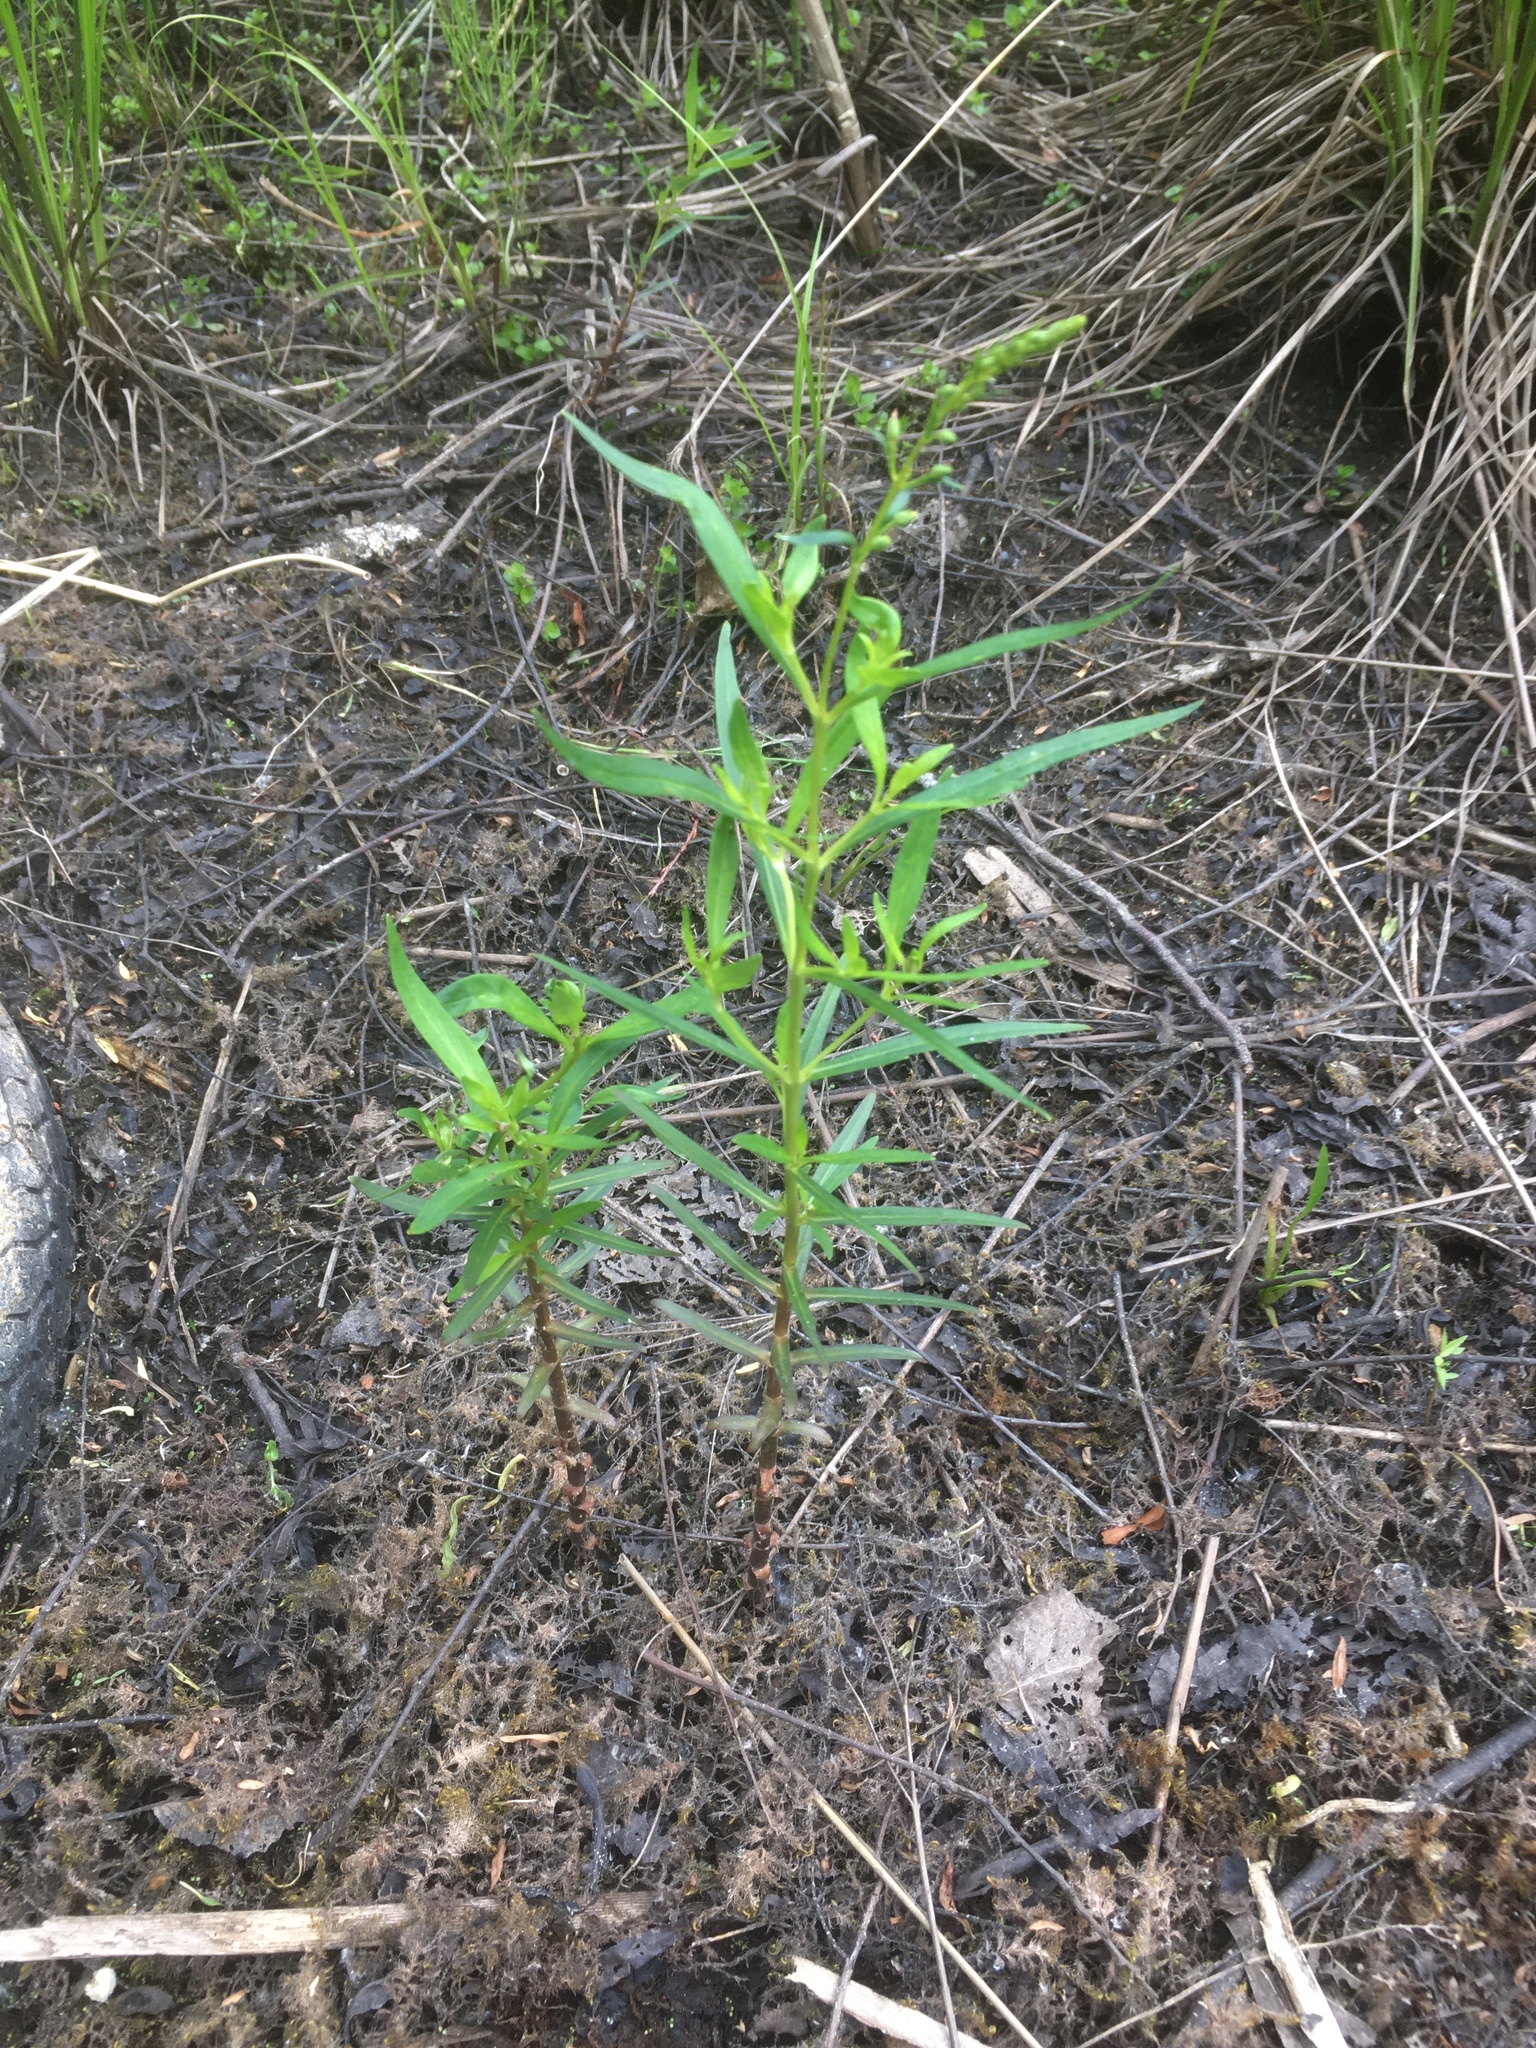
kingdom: Plantae
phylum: Tracheophyta
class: Magnoliopsida
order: Ericales
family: Primulaceae
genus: Lysimachia
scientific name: Lysimachia terrestris
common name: Lake loosestrife
